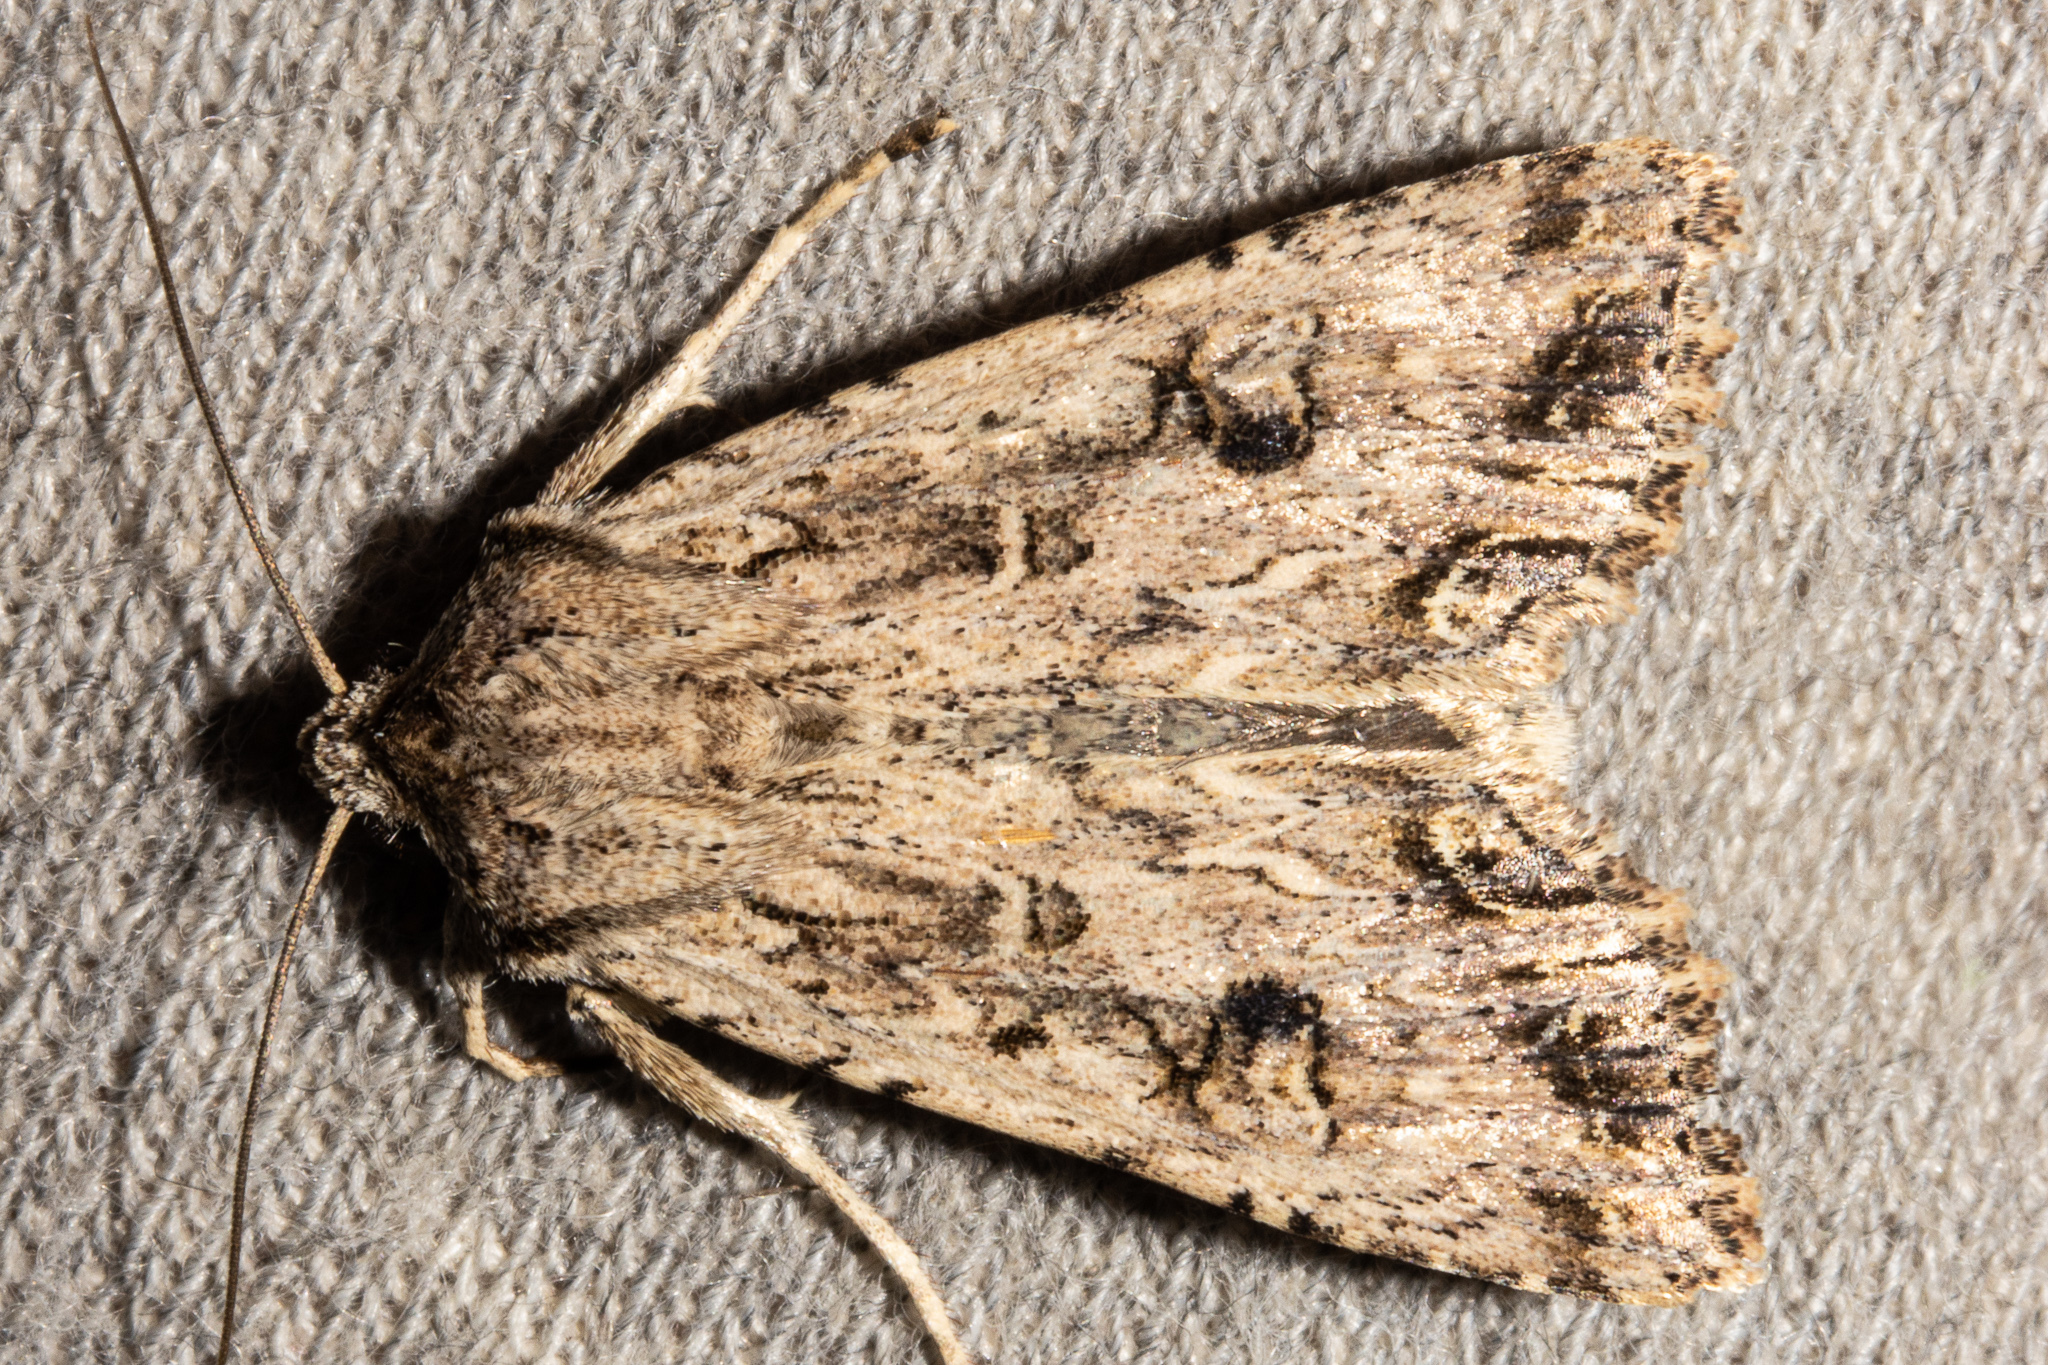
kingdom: Animalia
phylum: Arthropoda
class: Insecta
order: Lepidoptera
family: Noctuidae
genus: Ichneutica
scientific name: Ichneutica lignana
